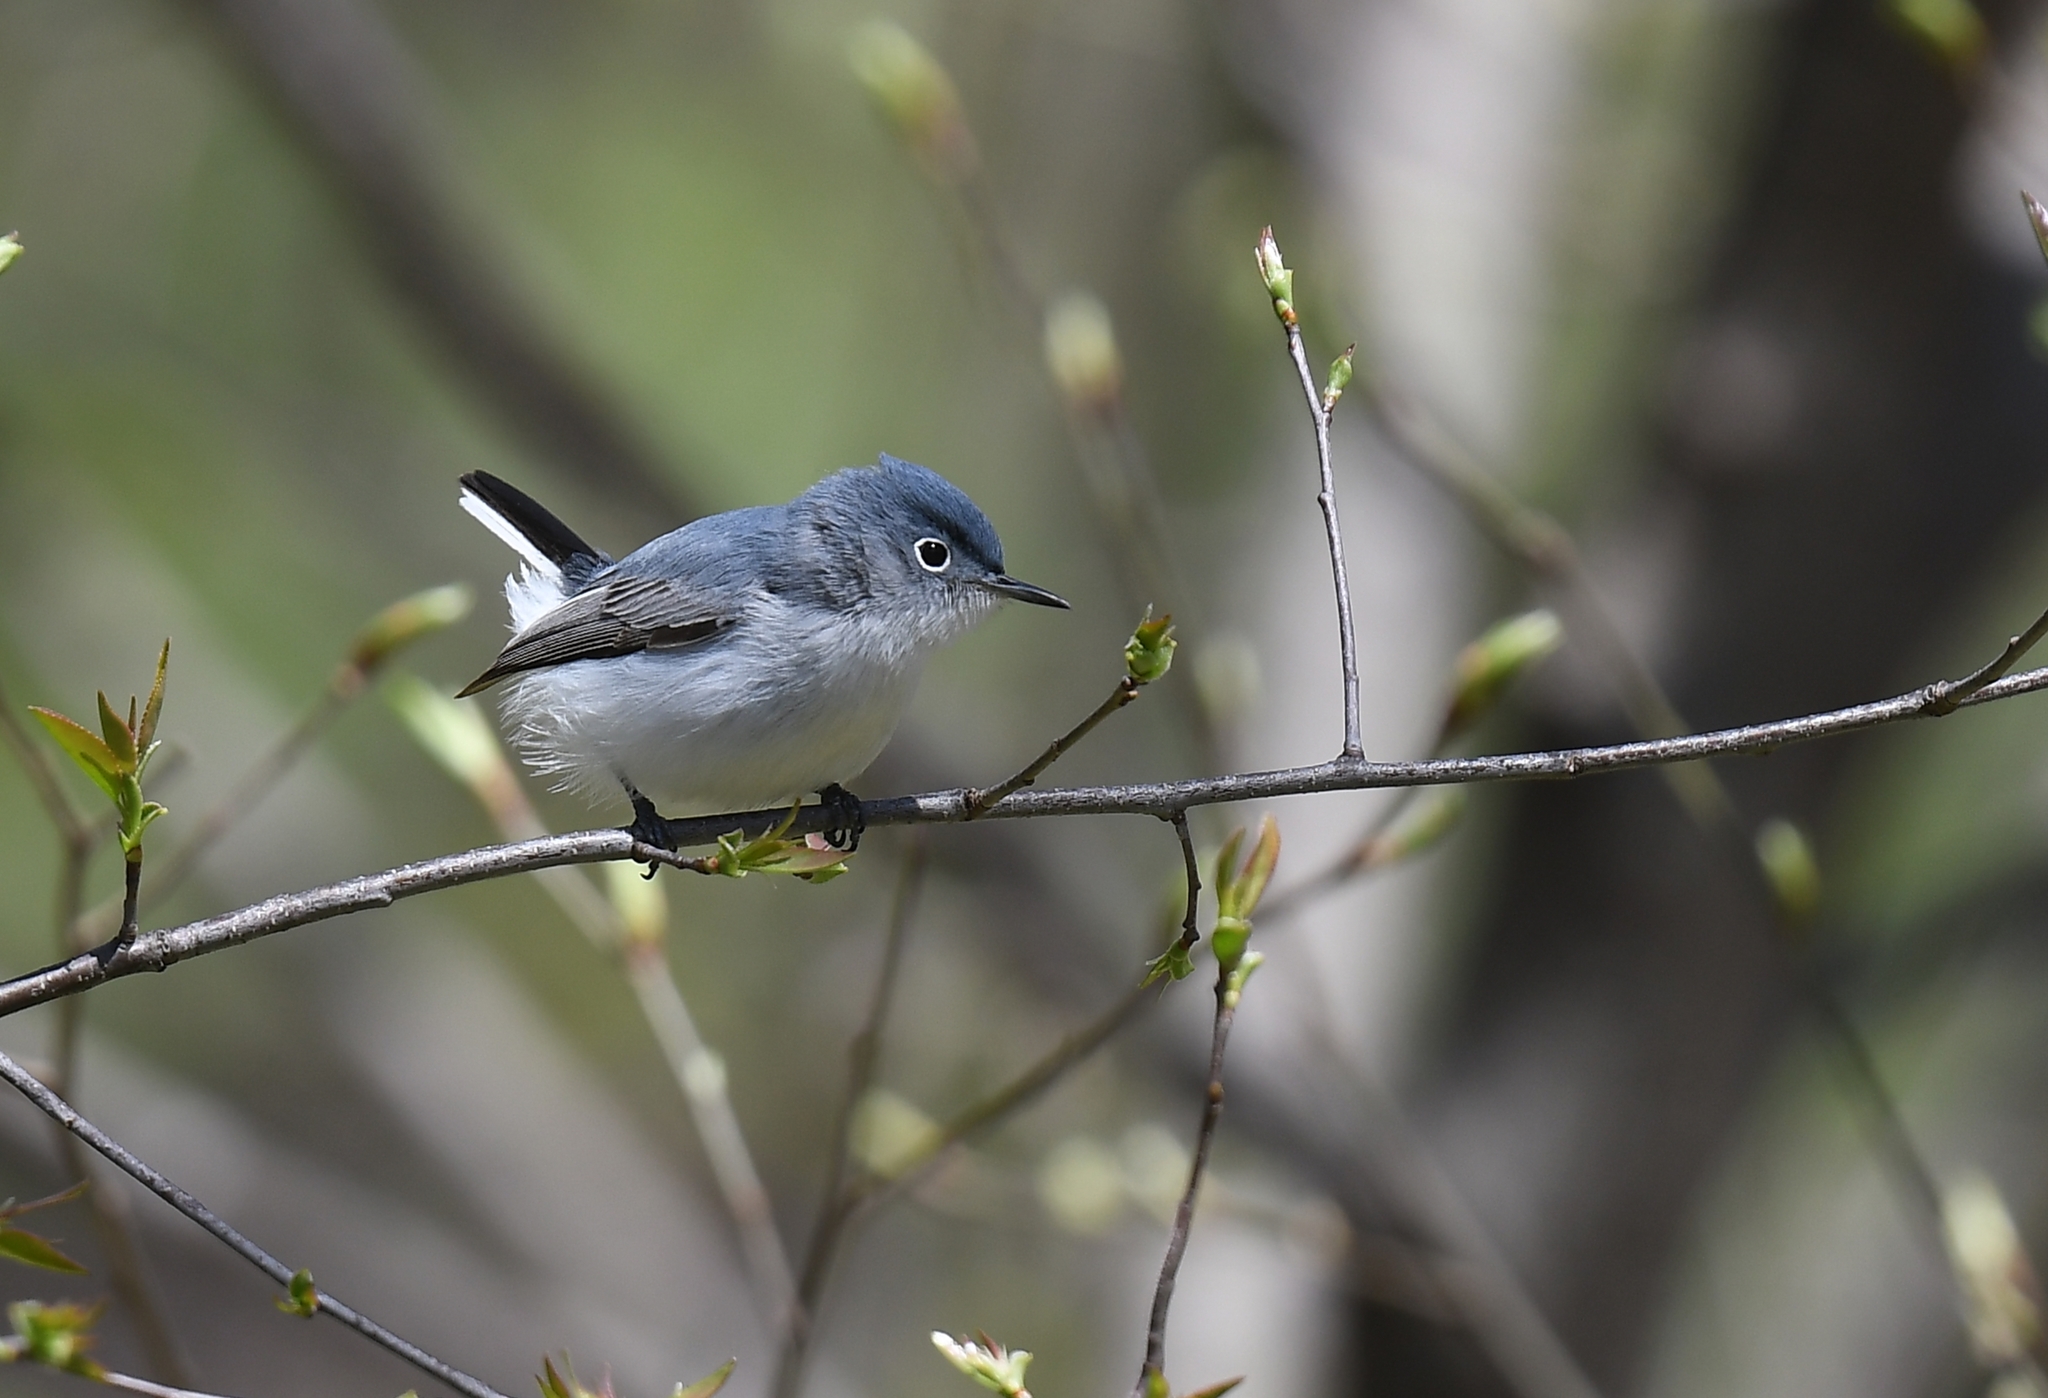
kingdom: Animalia
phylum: Chordata
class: Aves
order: Passeriformes
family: Polioptilidae
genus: Polioptila
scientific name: Polioptila caerulea
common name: Blue-gray gnatcatcher
